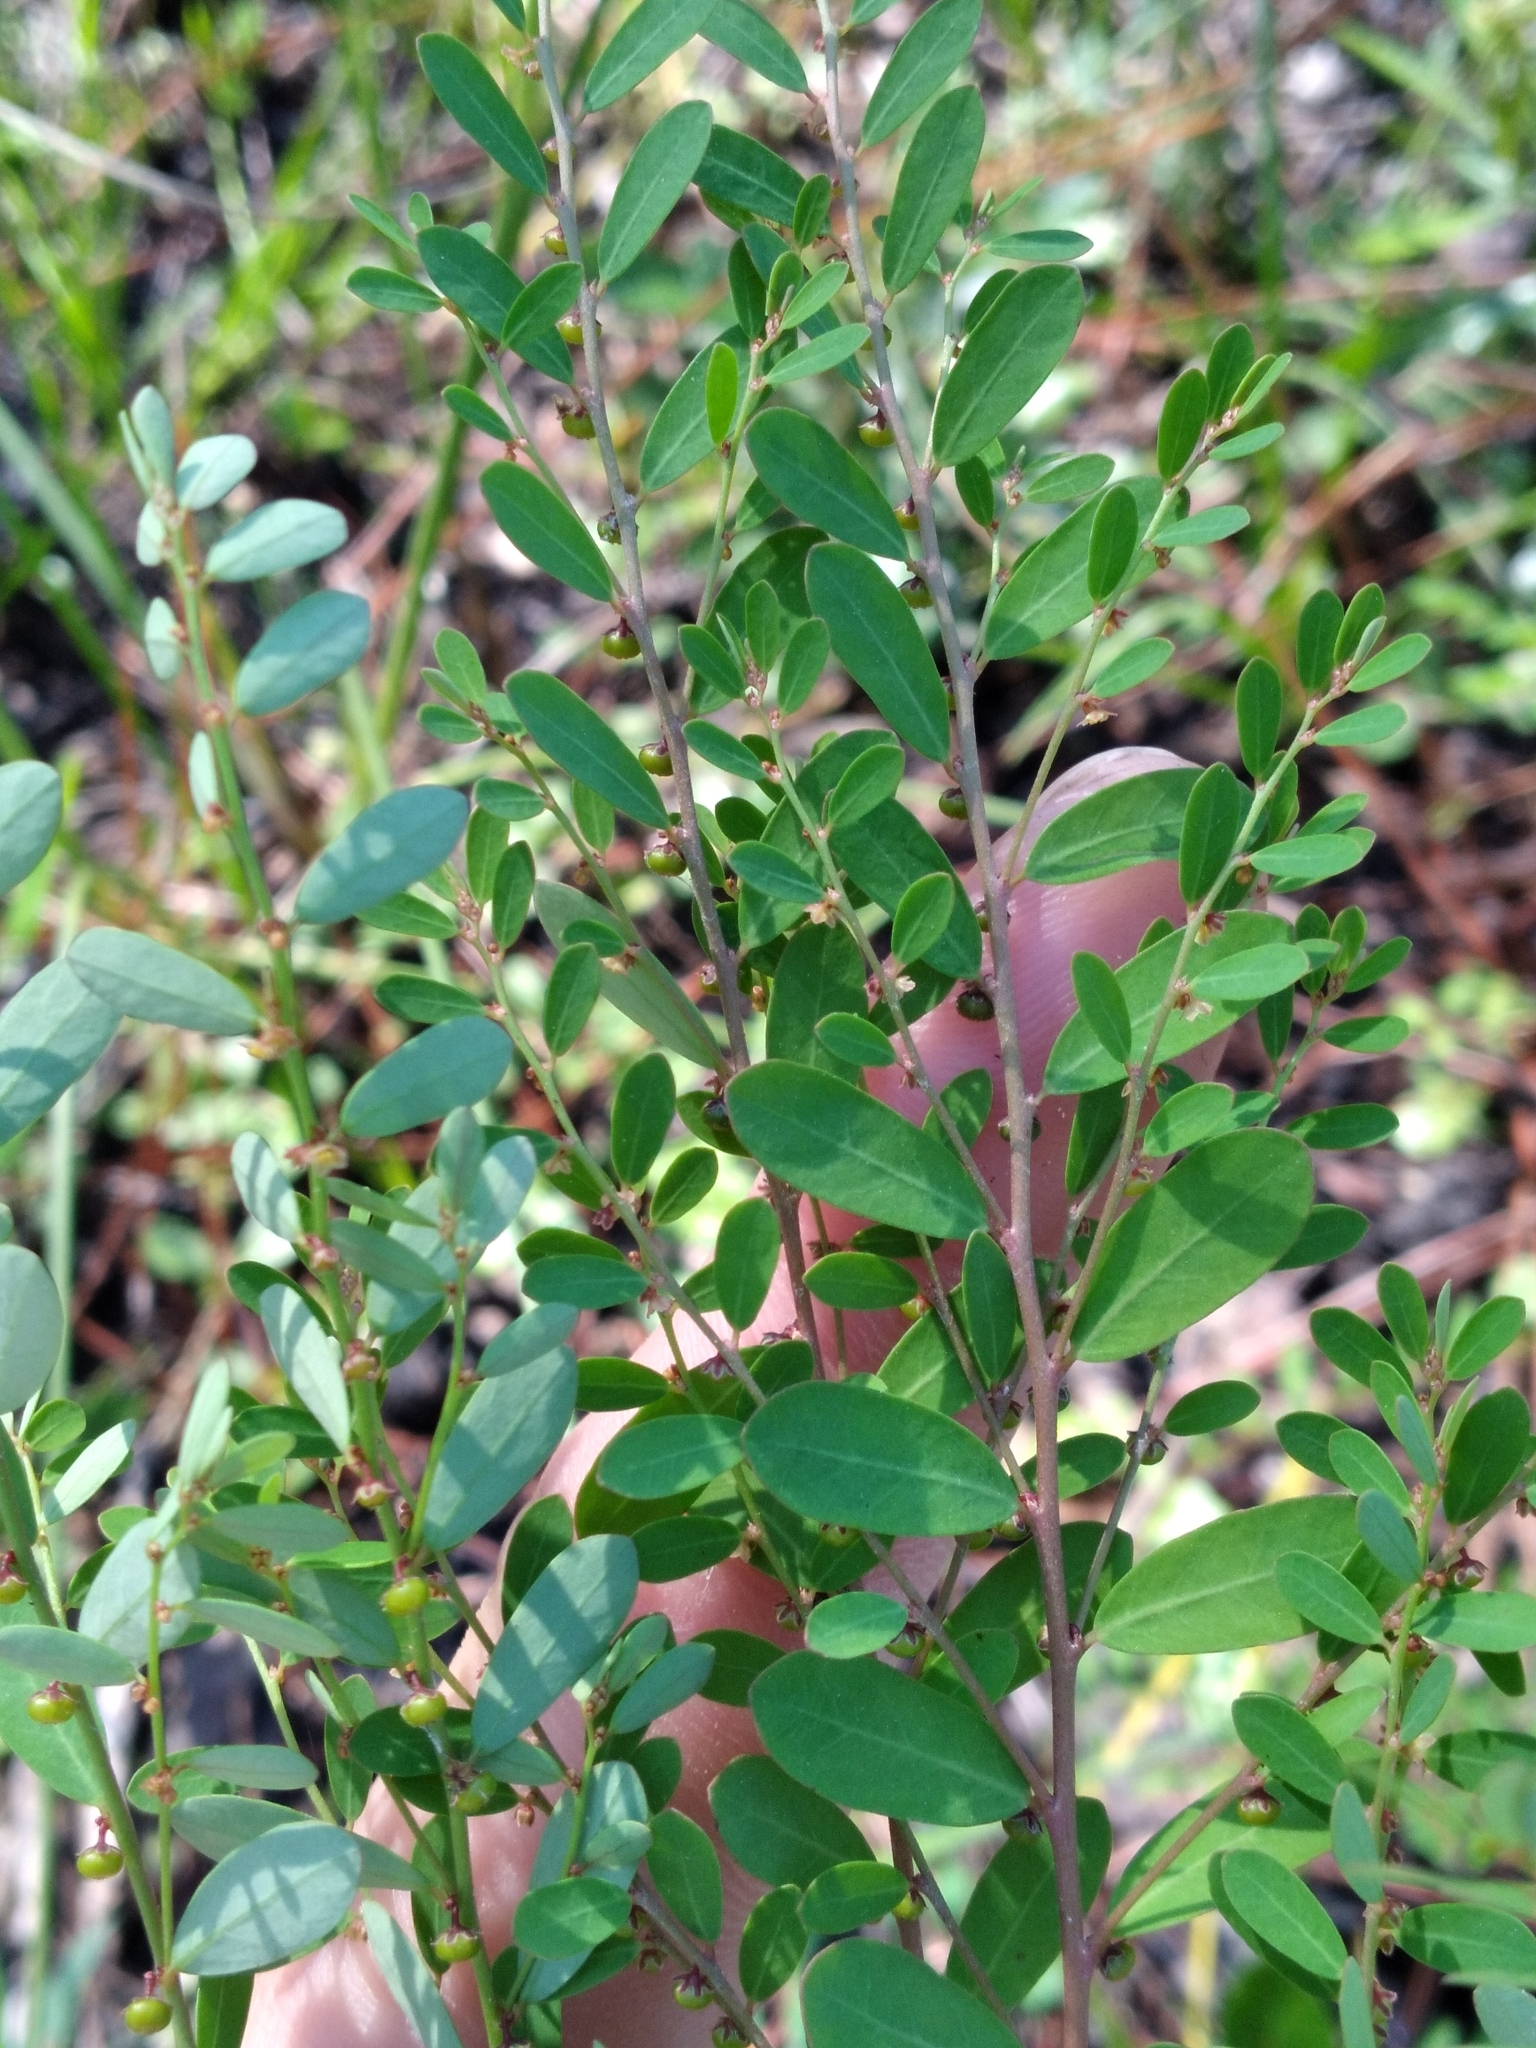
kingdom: Plantae
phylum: Tracheophyta
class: Magnoliopsida
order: Malpighiales
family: Phyllanthaceae
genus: Phyllanthus
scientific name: Phyllanthus caroliniensis
